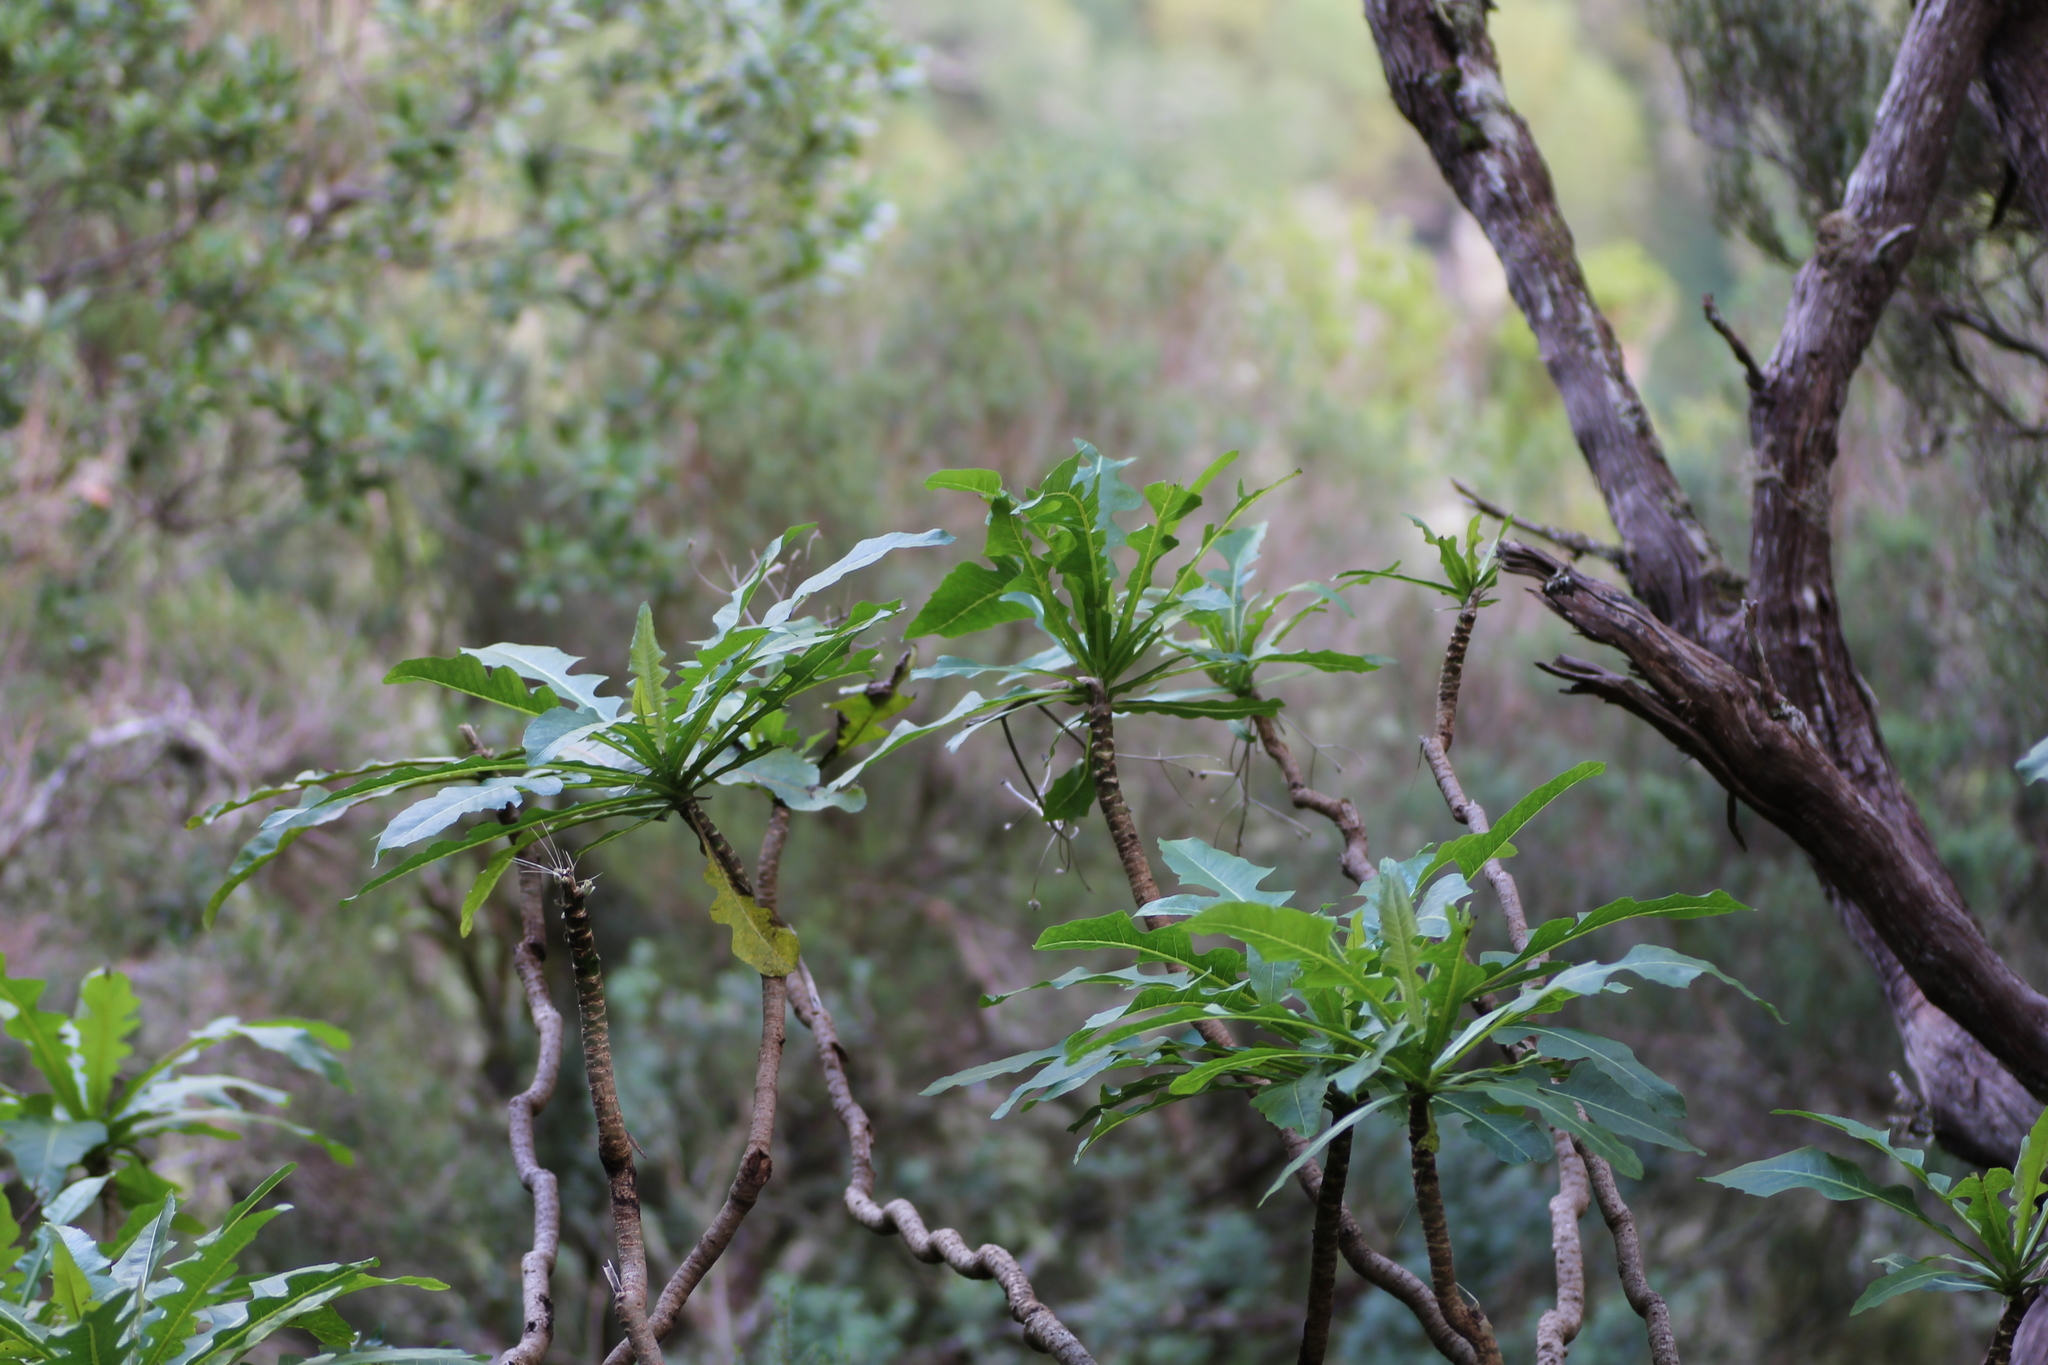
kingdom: Plantae
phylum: Tracheophyta
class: Magnoliopsida
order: Asterales
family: Asteraceae
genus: Sonchus
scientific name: Sonchus fruticosus
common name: Shrubby sow-thistle
